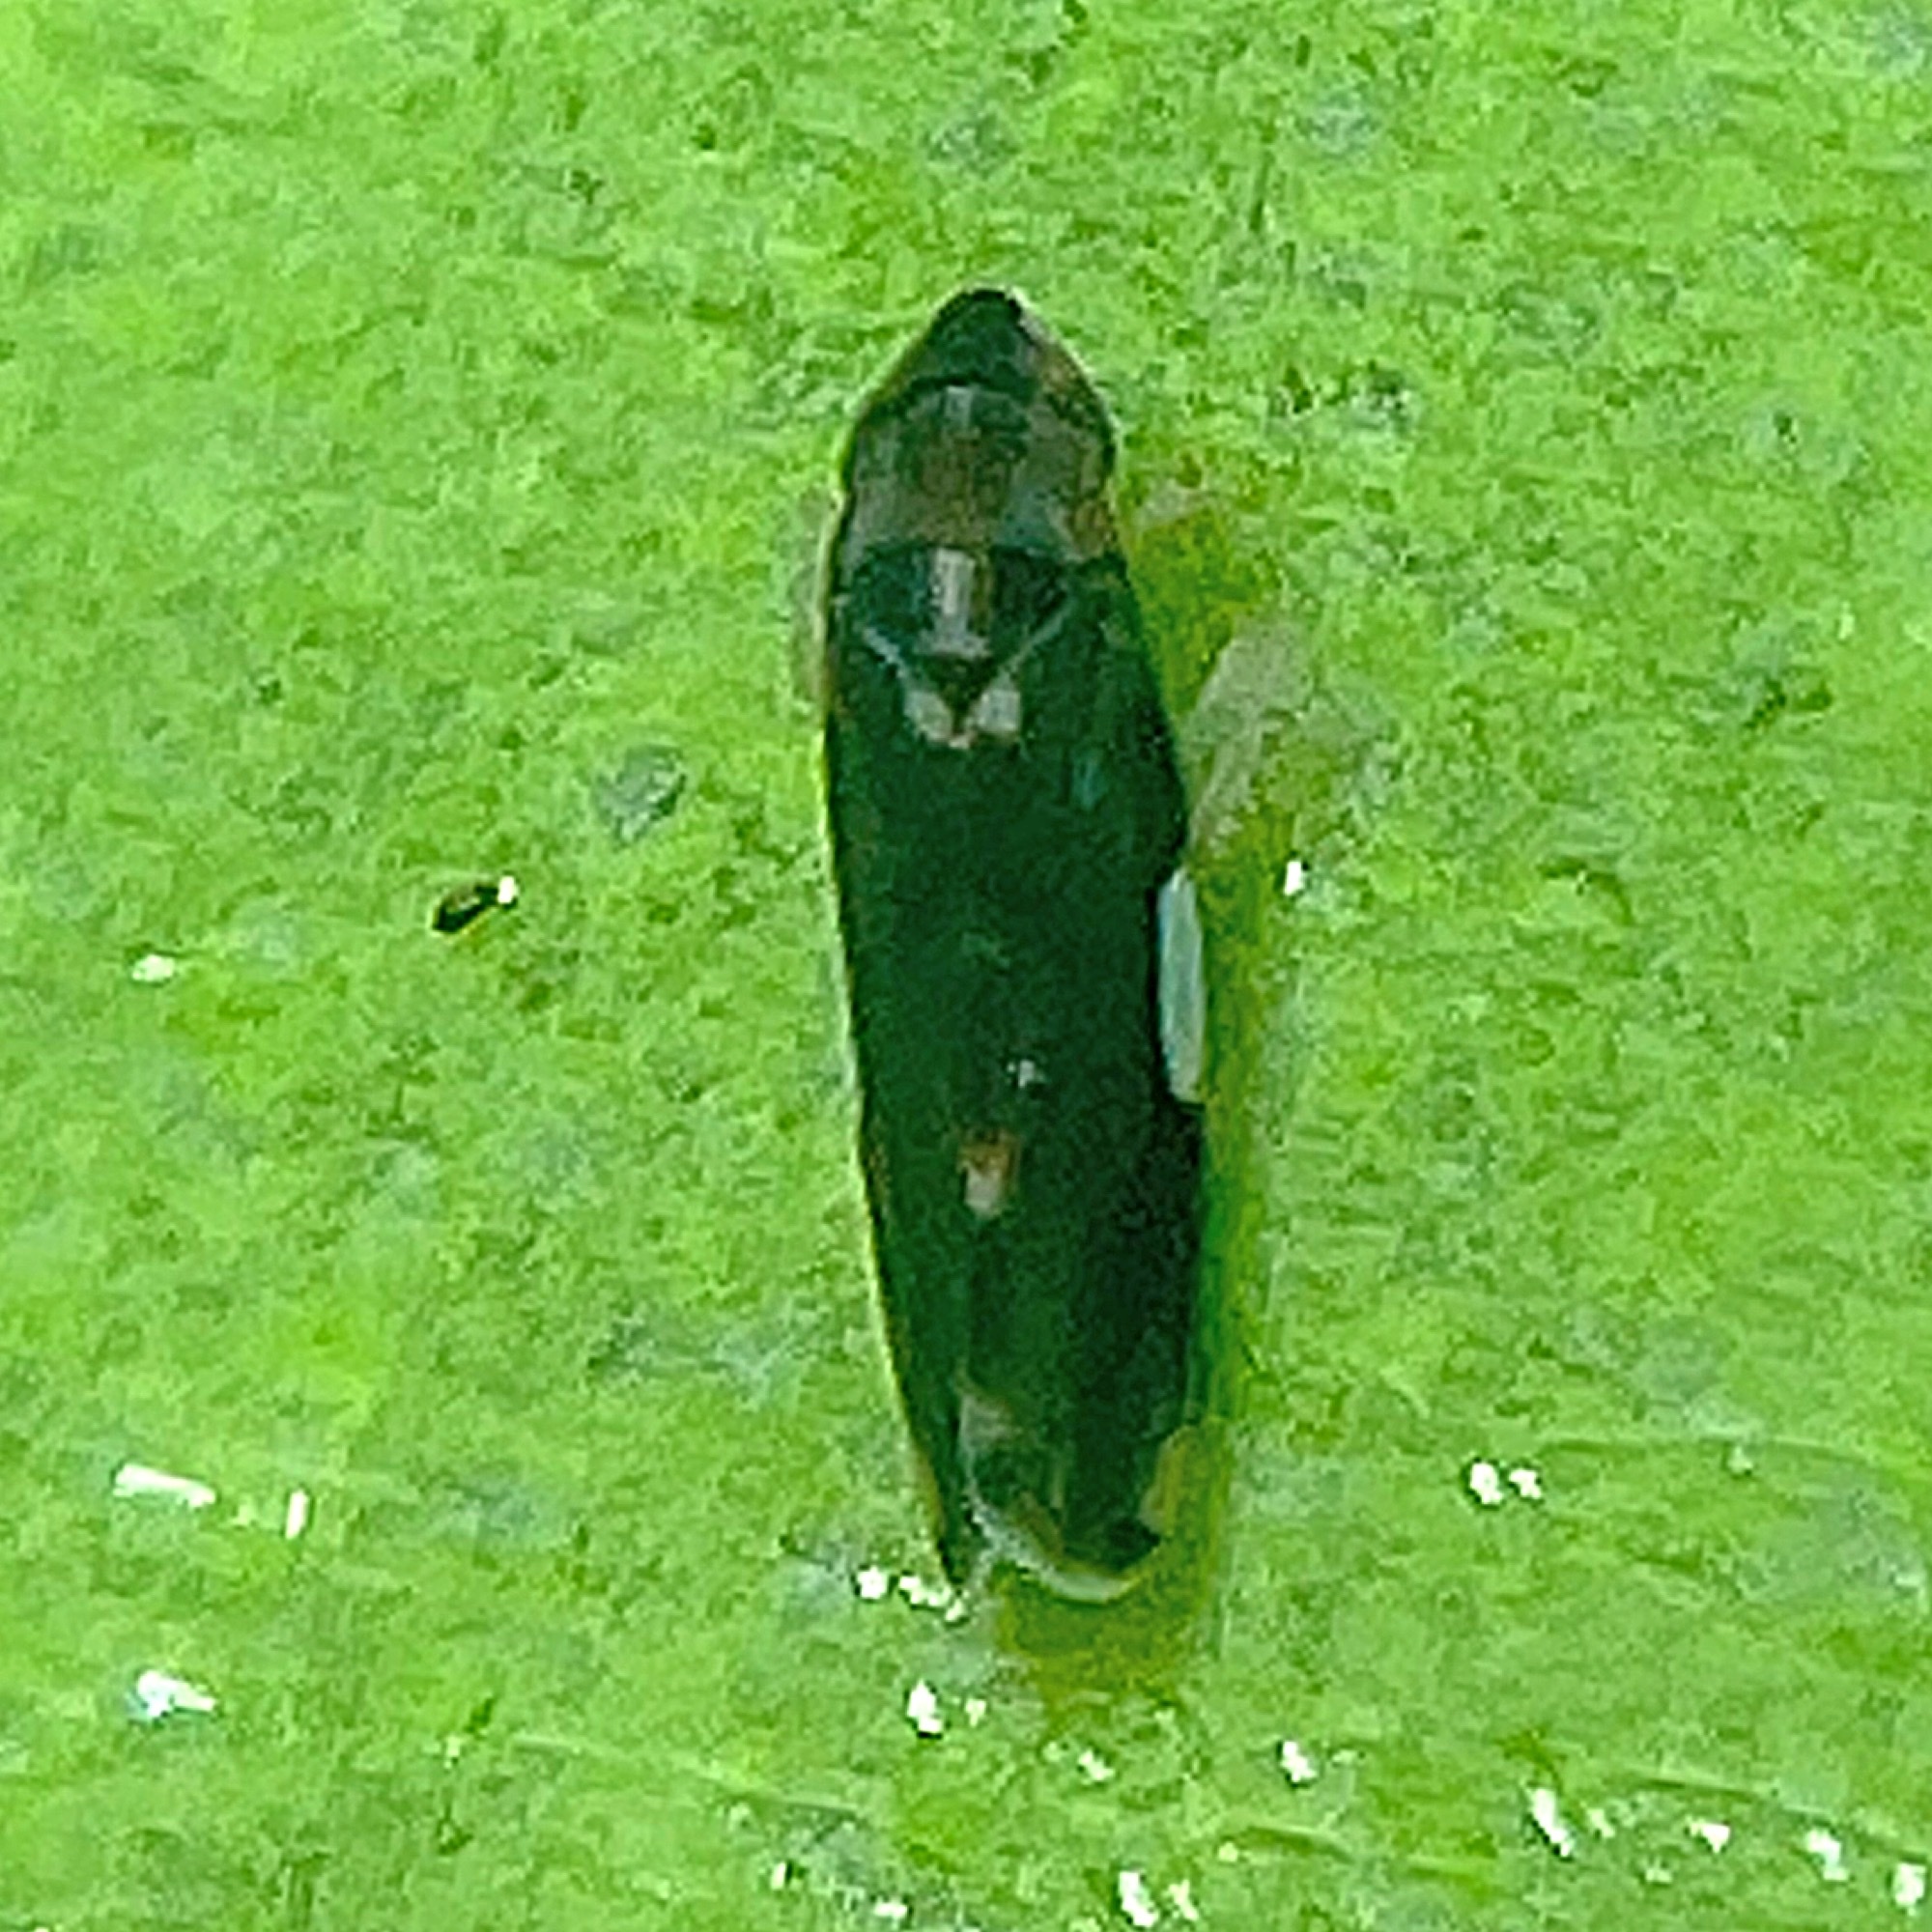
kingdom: Animalia
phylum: Arthropoda
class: Insecta
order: Hemiptera
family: Cicadellidae
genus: Erythroneura
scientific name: Erythroneura infuscata
